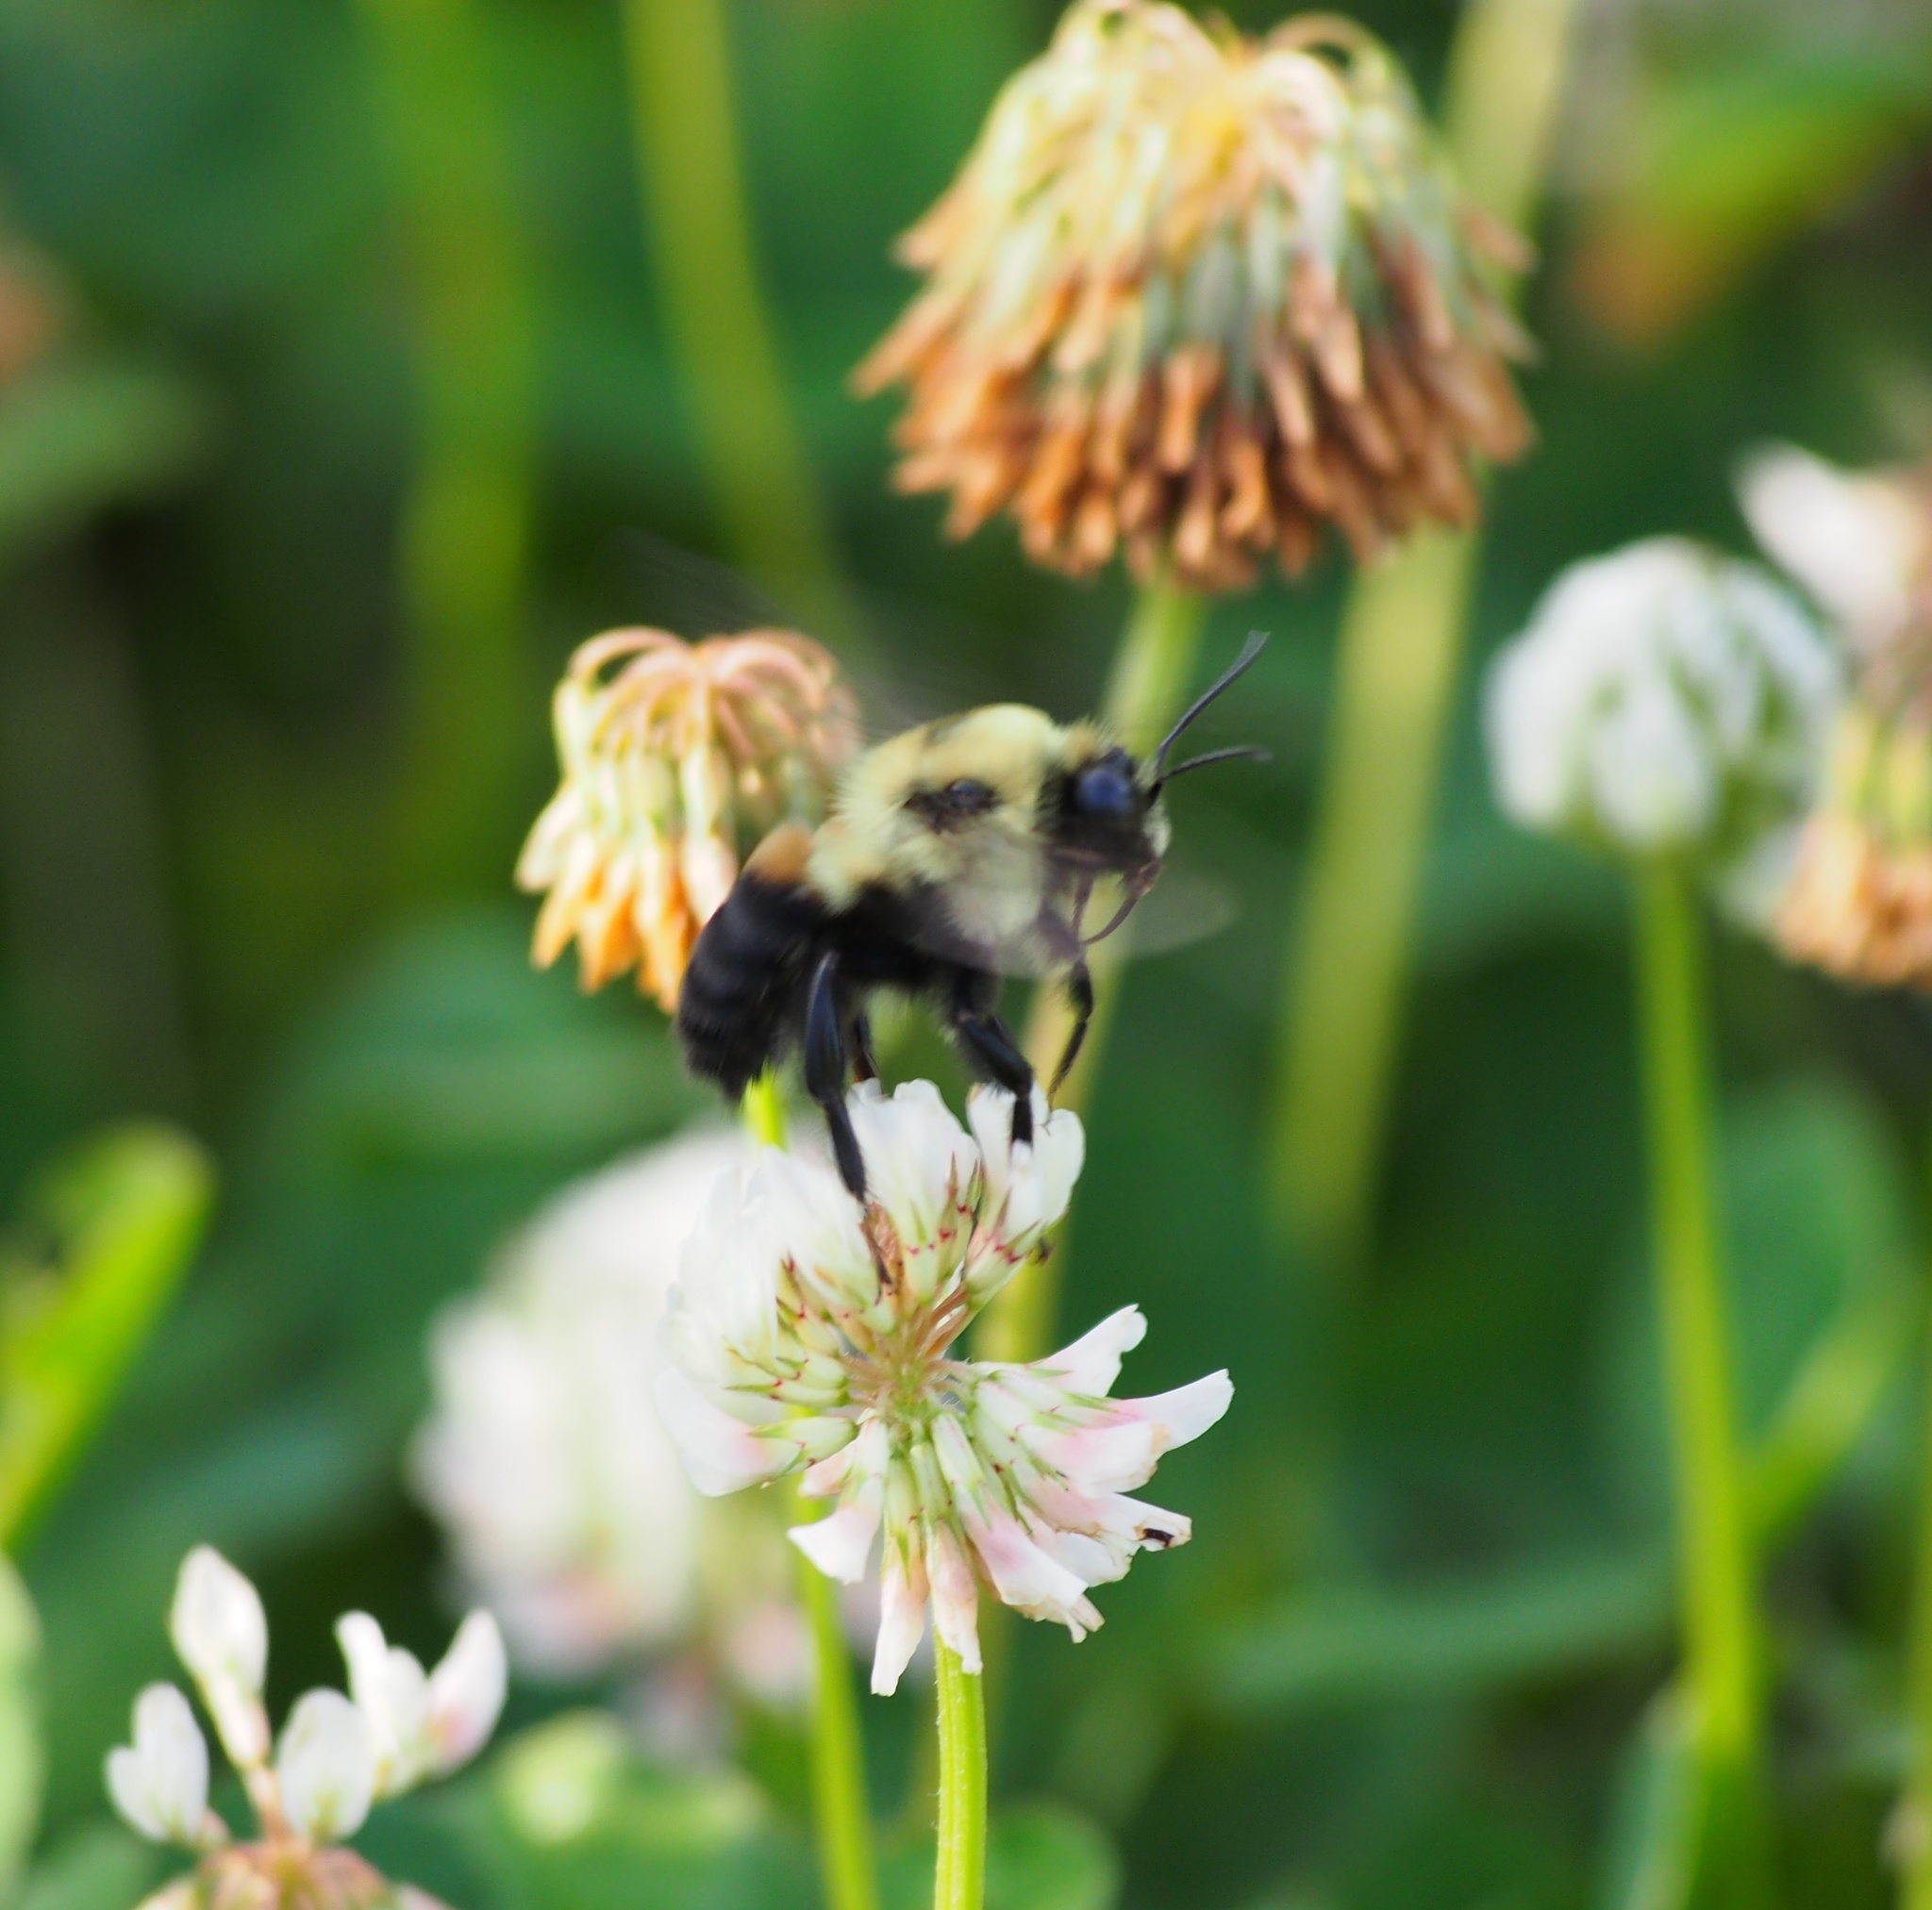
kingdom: Animalia
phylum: Arthropoda
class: Insecta
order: Hymenoptera
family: Apidae
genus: Bombus
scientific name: Bombus griseocollis
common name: Brown-belted bumble bee
